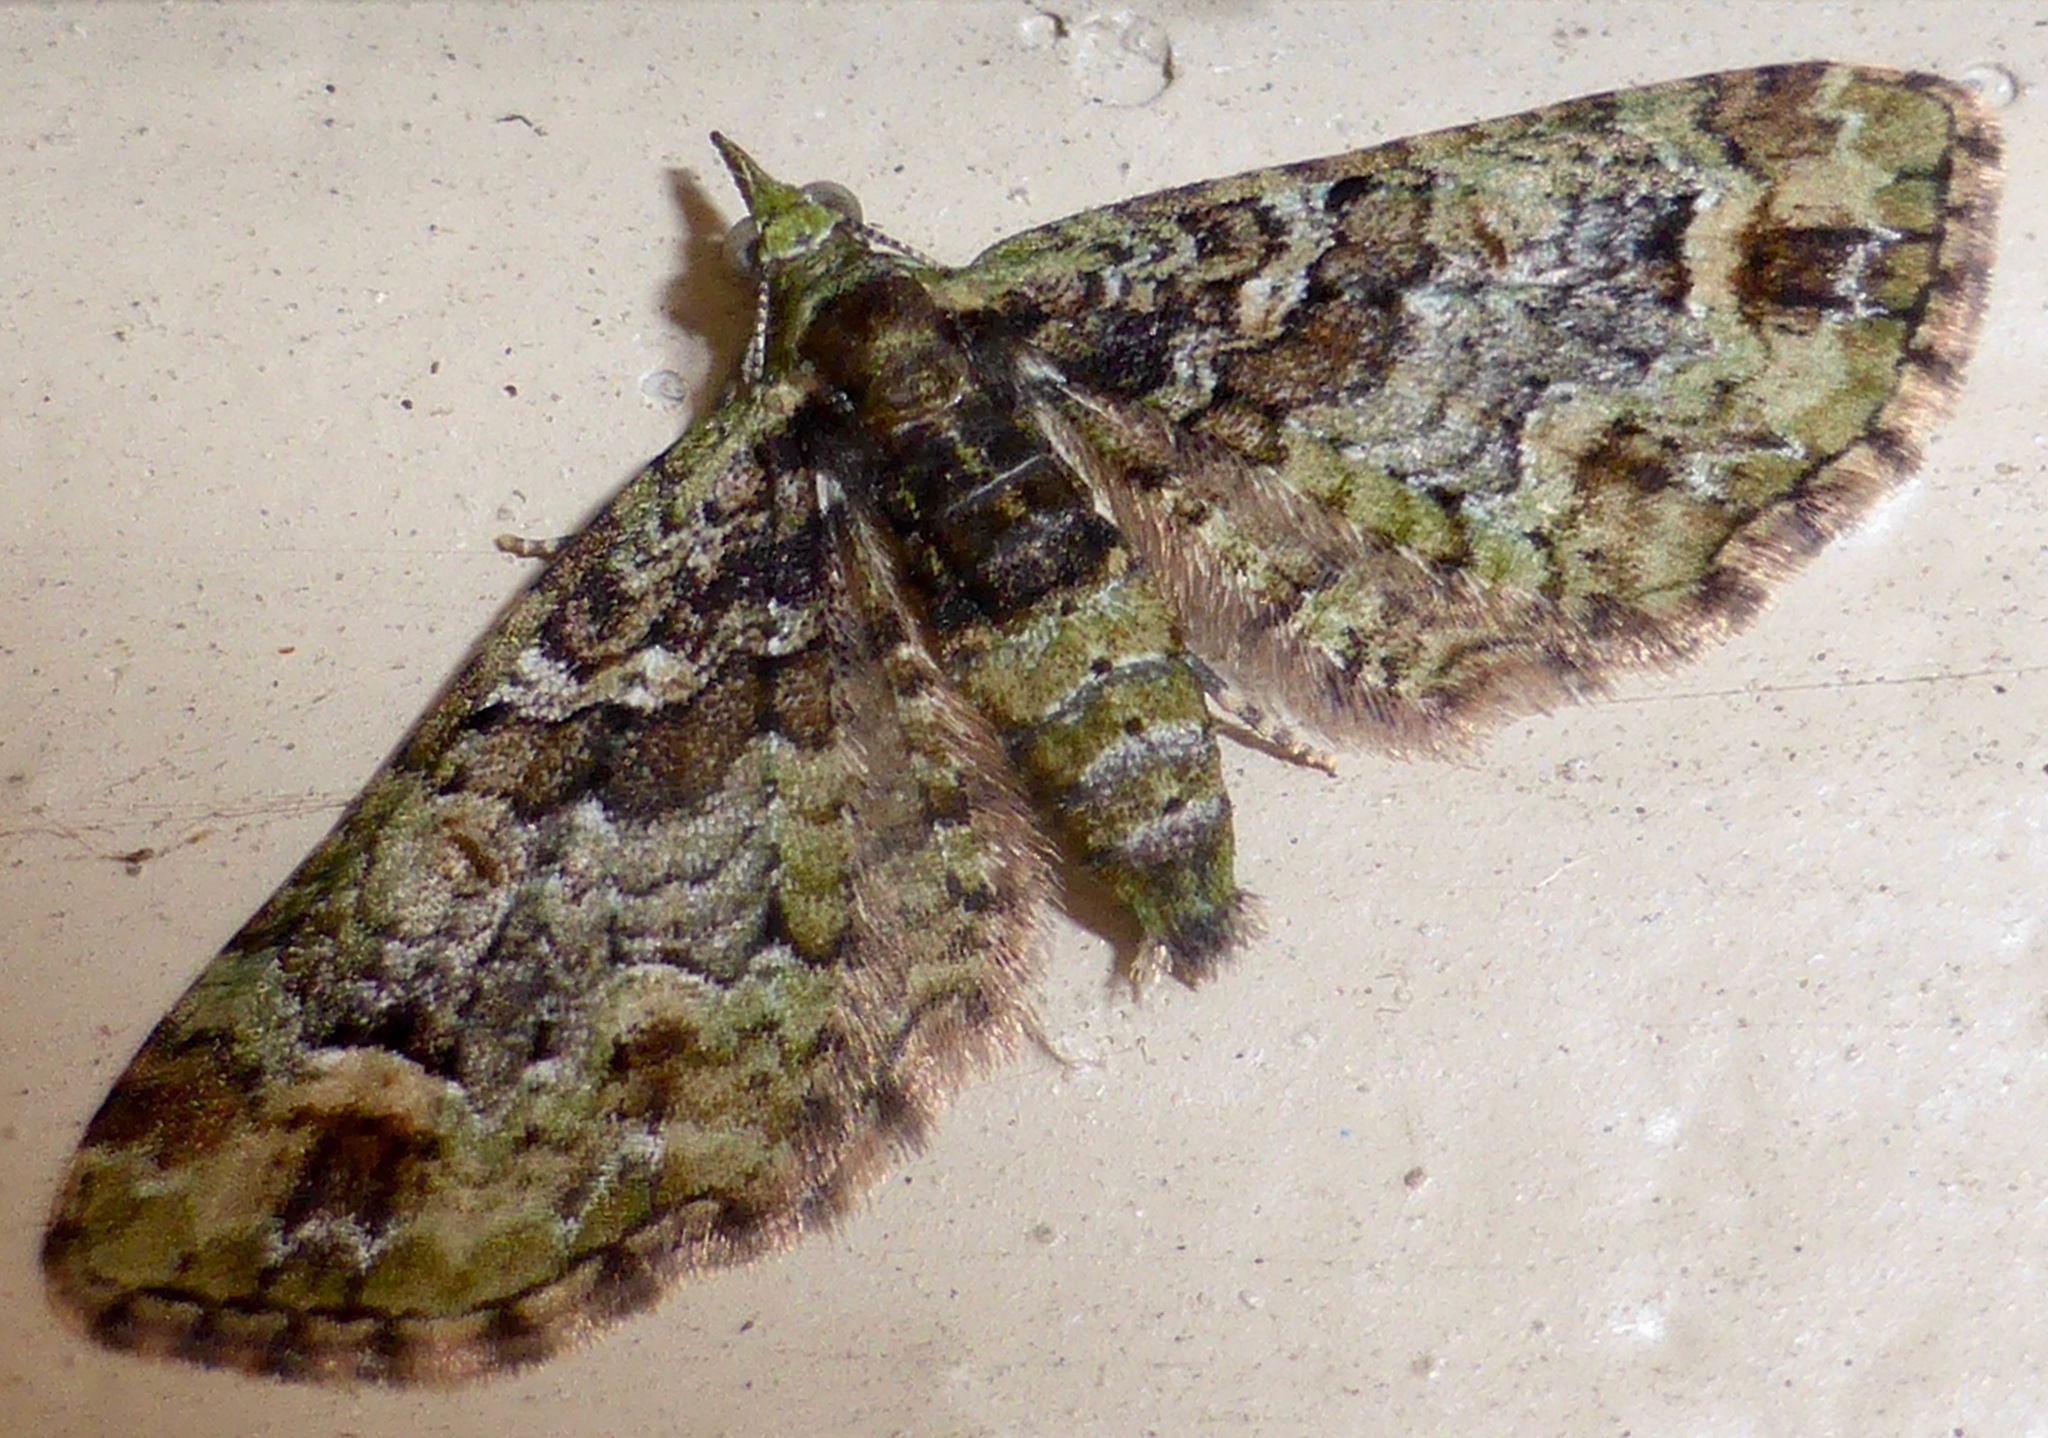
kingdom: Animalia
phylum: Arthropoda
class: Insecta
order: Lepidoptera
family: Geometridae
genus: Idaea
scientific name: Idaea mutanda
